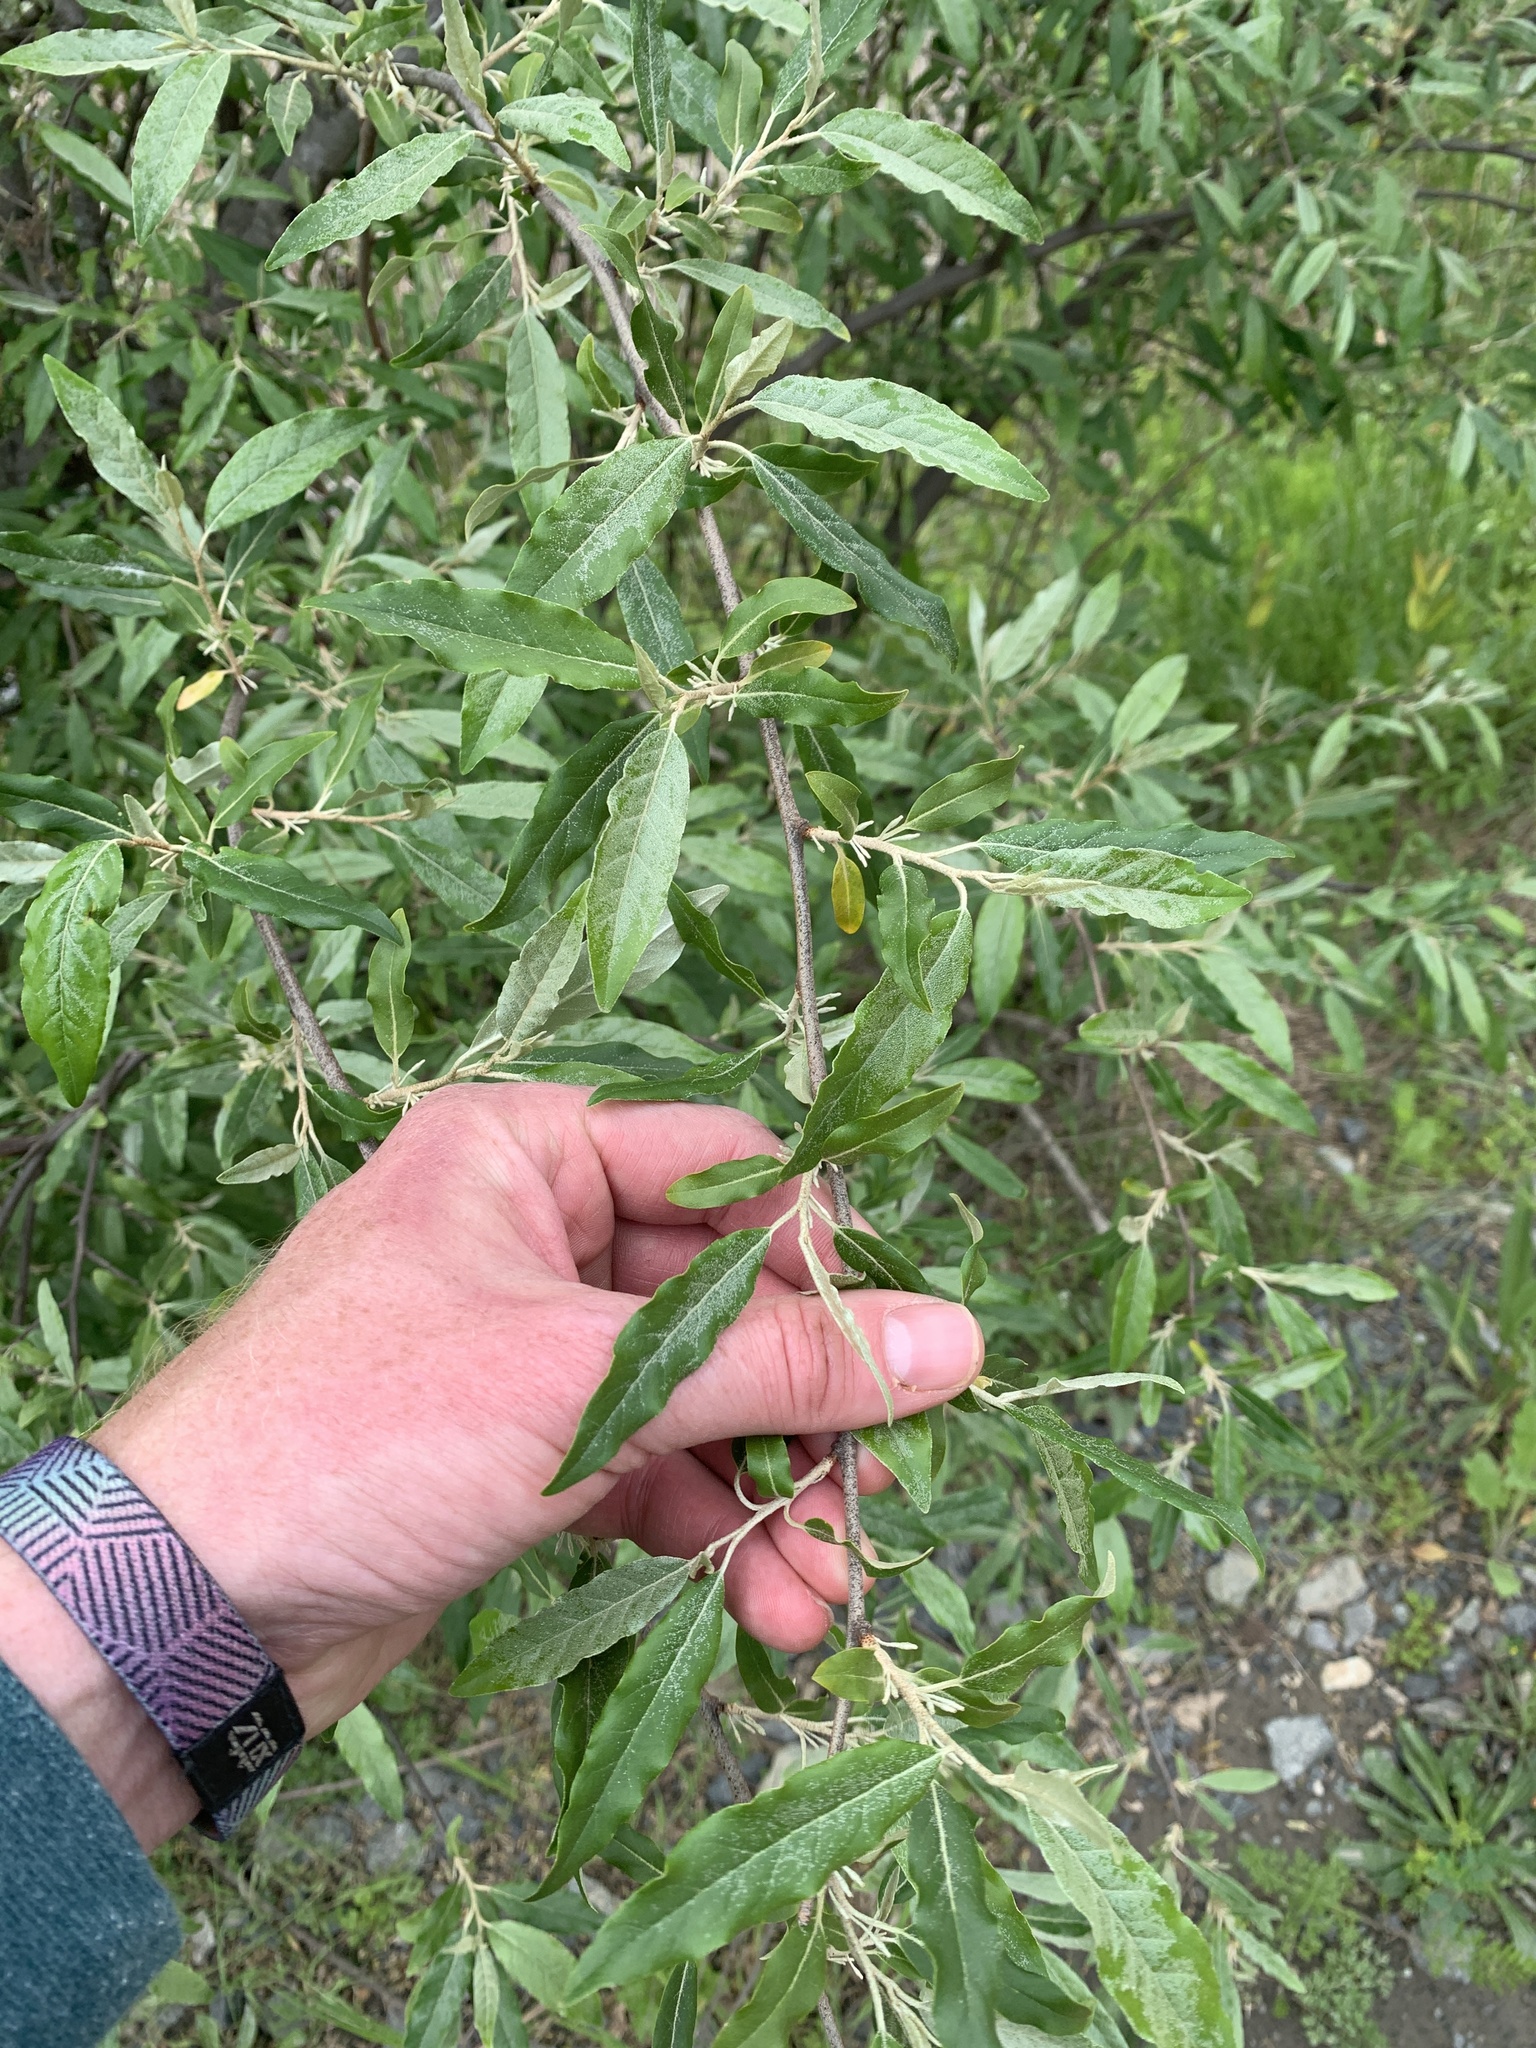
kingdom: Plantae
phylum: Tracheophyta
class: Magnoliopsida
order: Rosales
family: Elaeagnaceae
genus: Elaeagnus
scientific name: Elaeagnus umbellata
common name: Autumn olive
